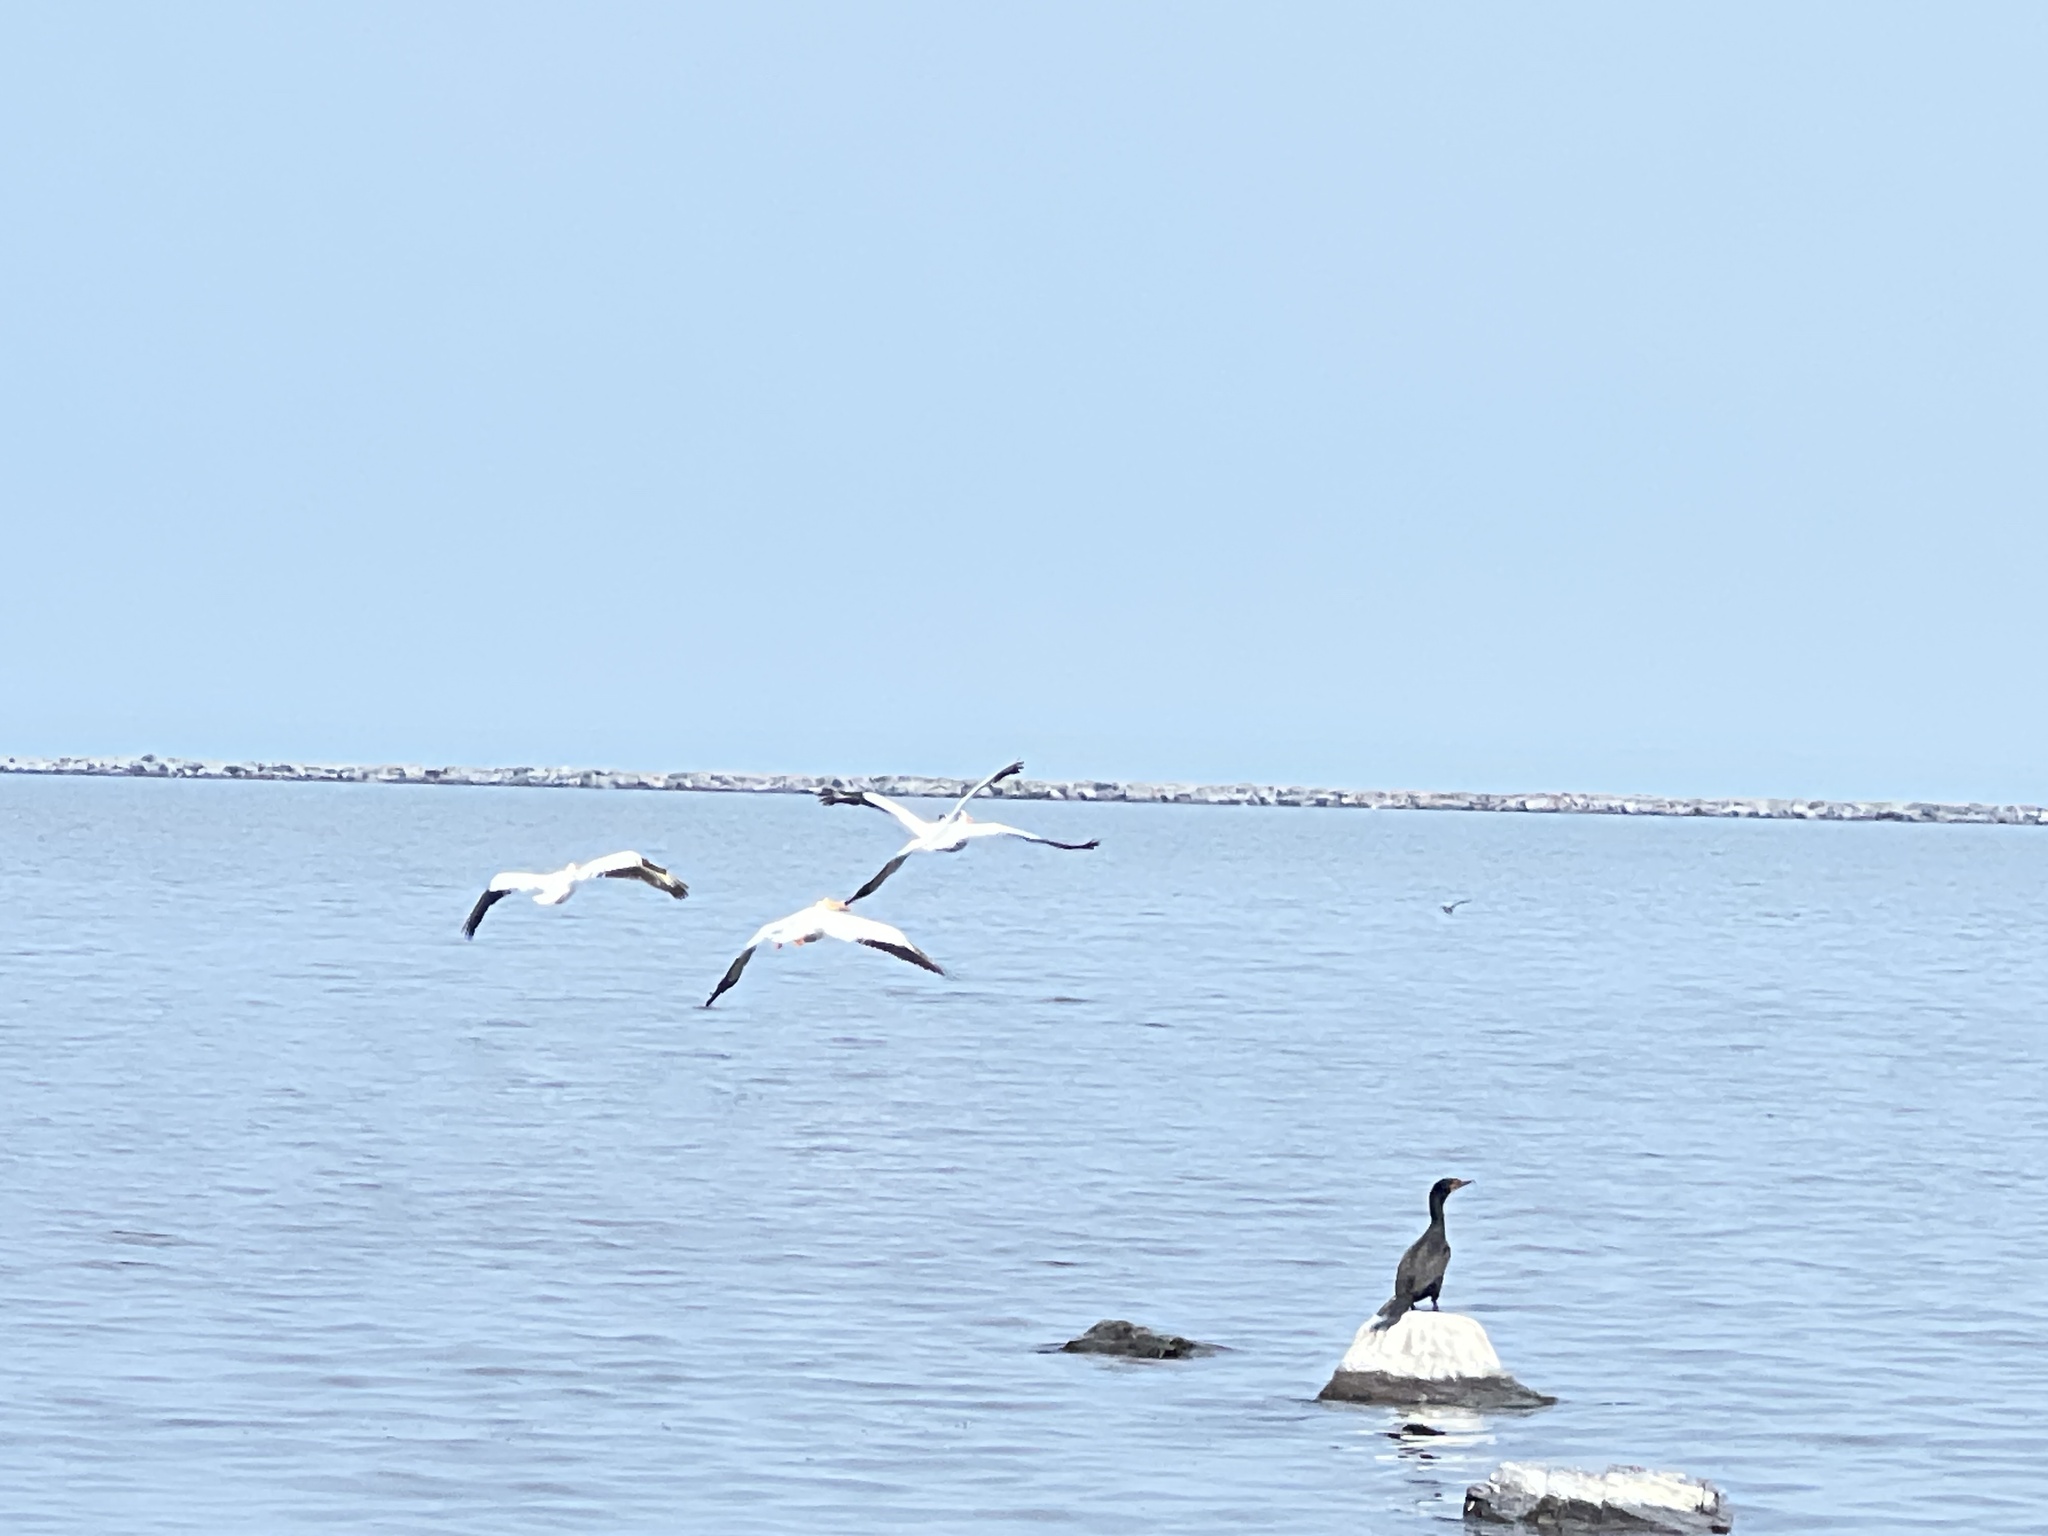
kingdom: Animalia
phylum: Chordata
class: Aves
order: Pelecaniformes
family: Pelecanidae
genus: Pelecanus
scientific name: Pelecanus erythrorhynchos
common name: American white pelican
